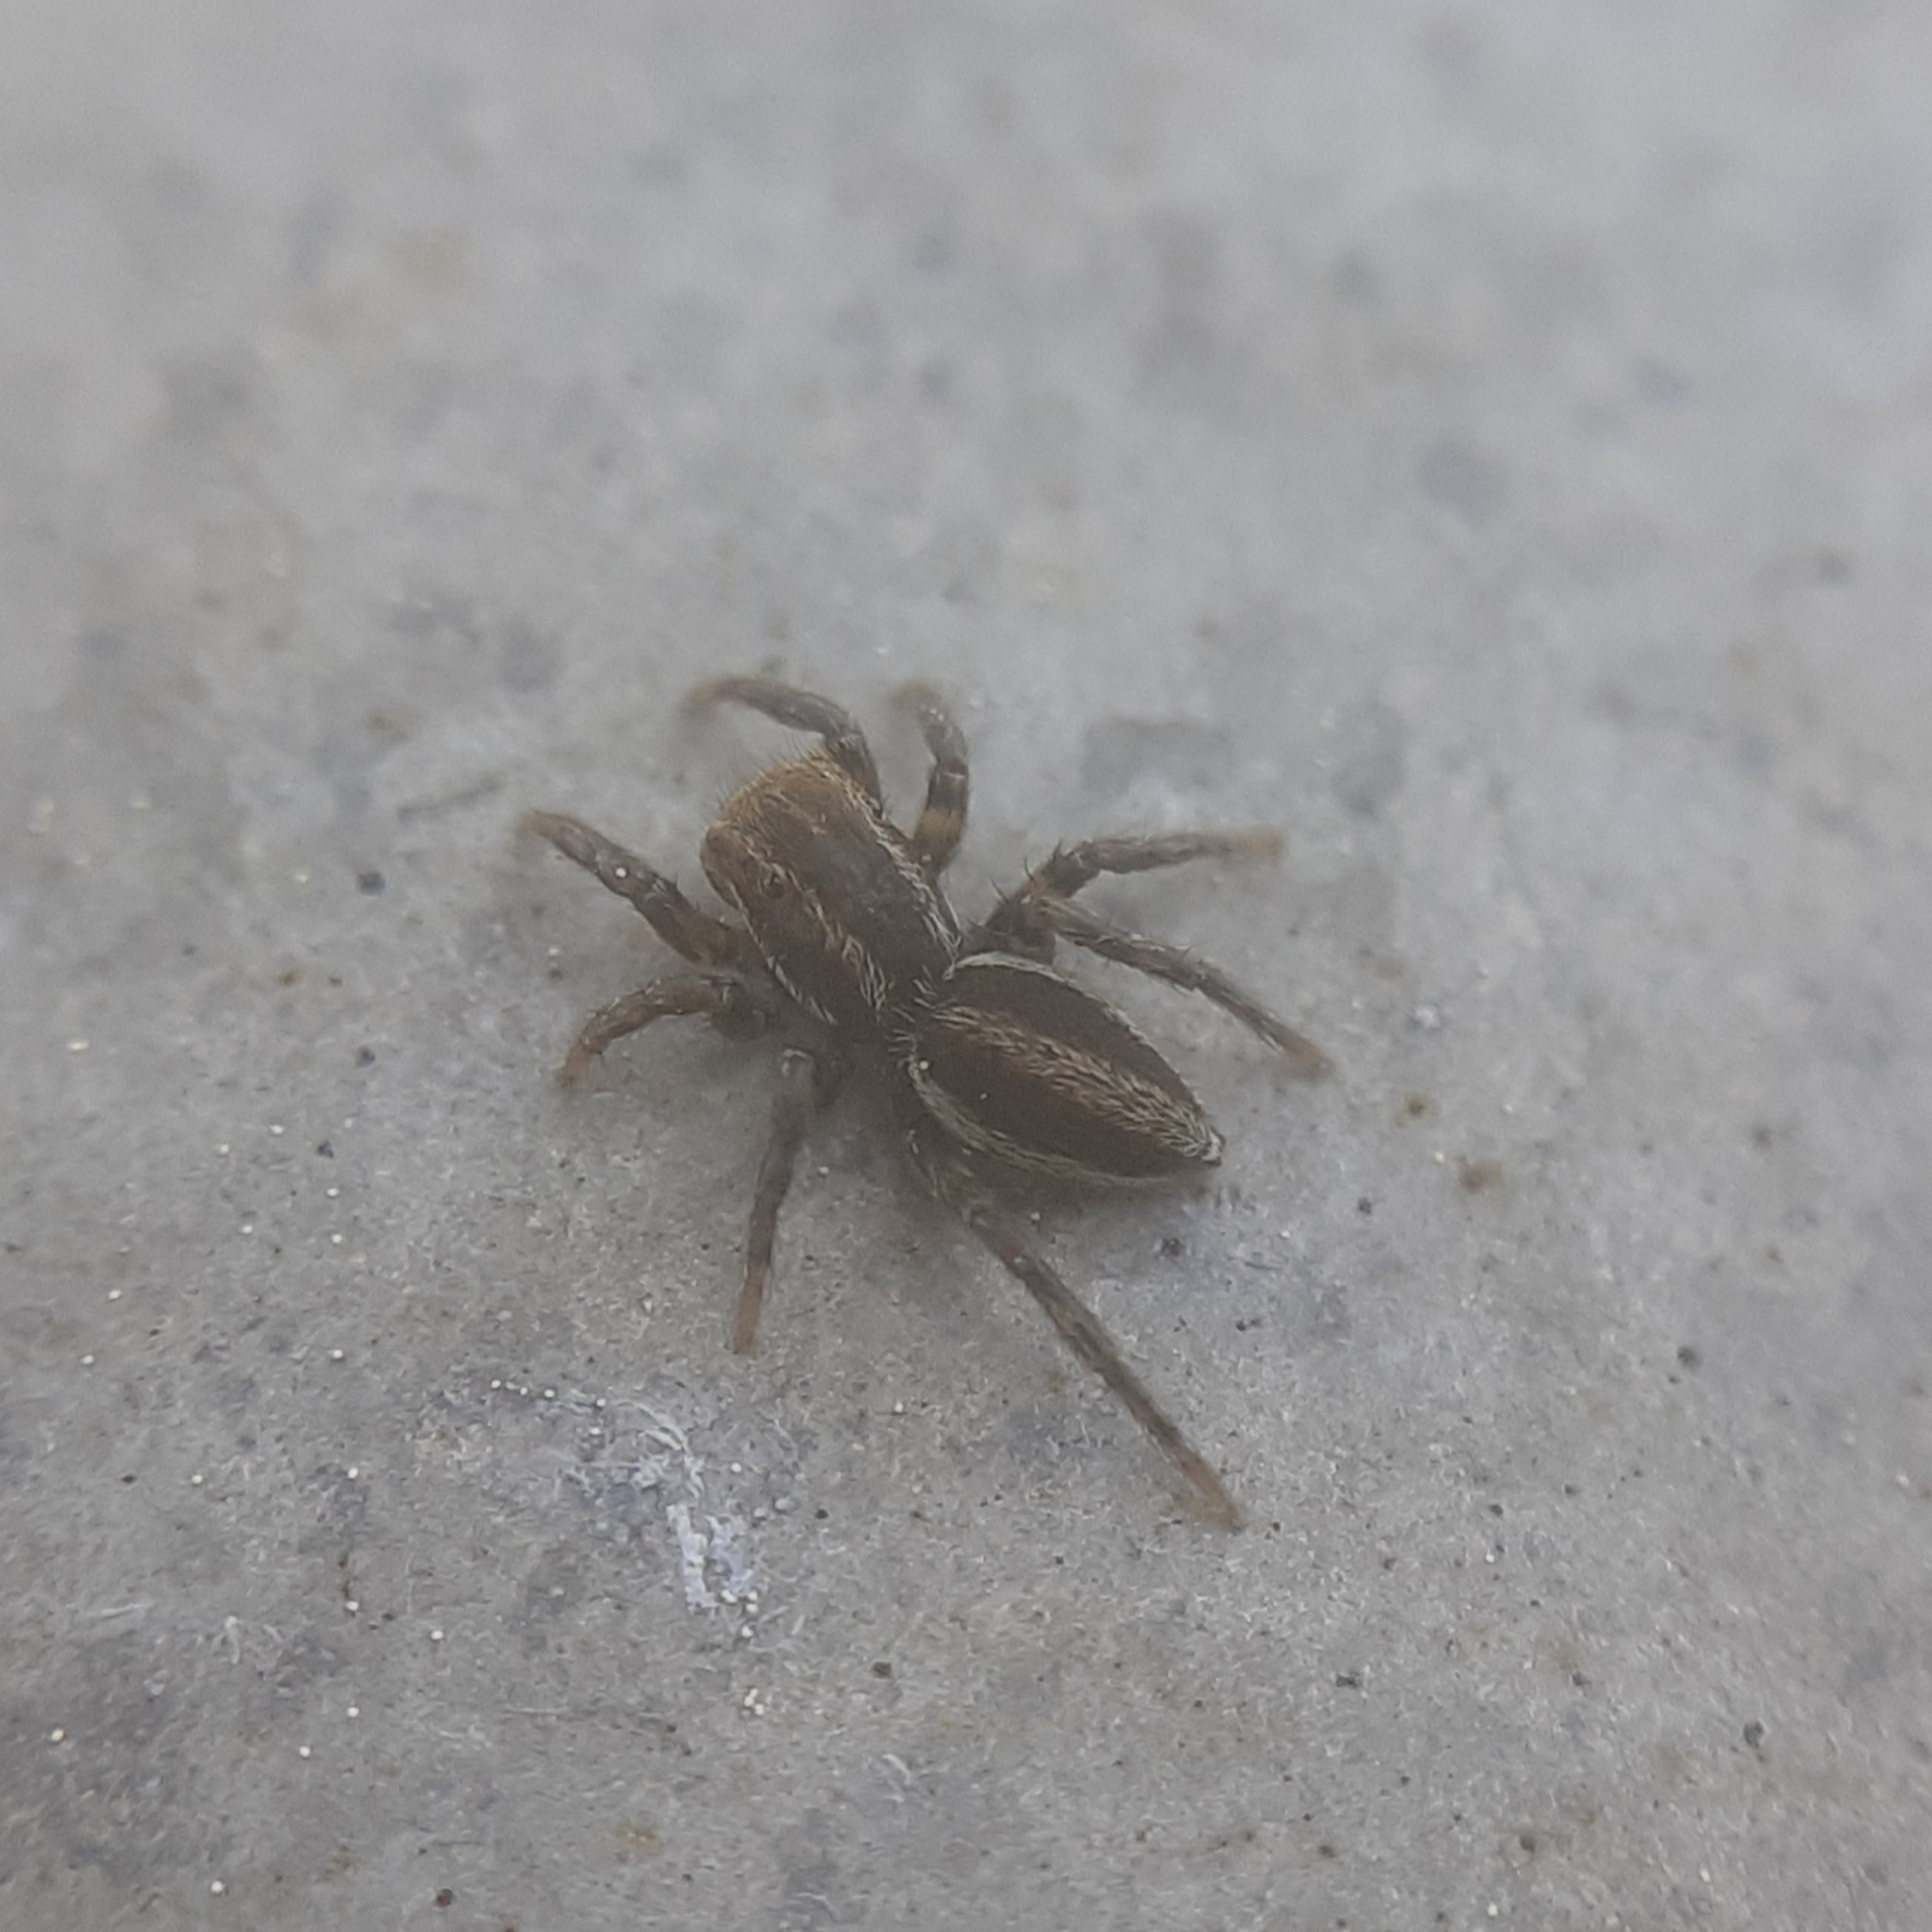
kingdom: Animalia
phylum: Arthropoda
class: Arachnida
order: Araneae
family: Salticidae
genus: Phlegra
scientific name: Phlegra fasciata
